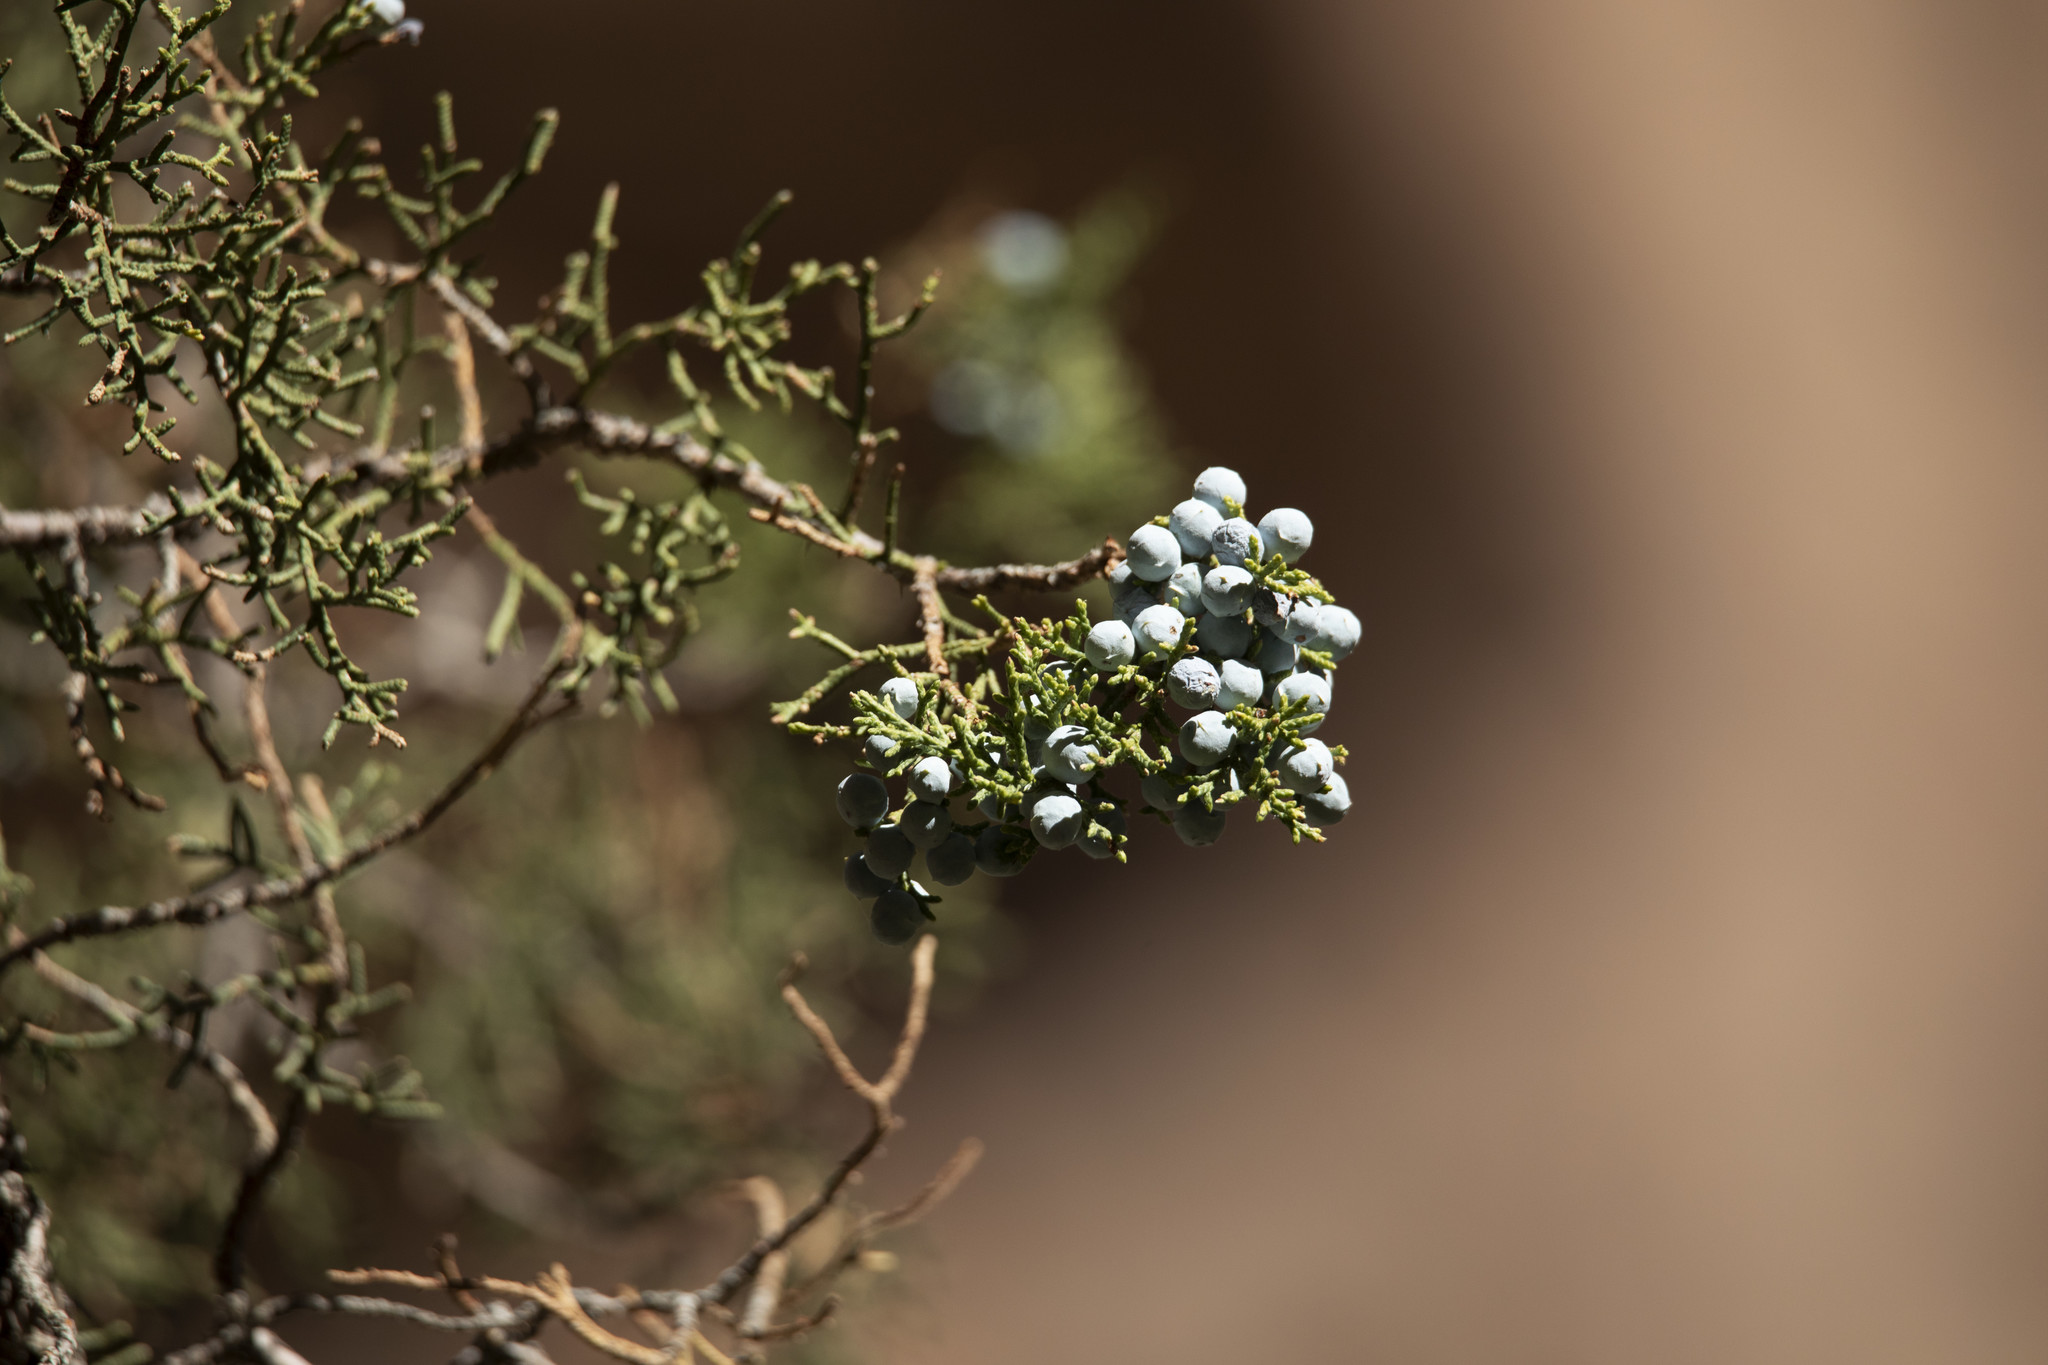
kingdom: Plantae
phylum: Tracheophyta
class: Pinopsida
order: Pinales
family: Cupressaceae
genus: Juniperus
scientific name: Juniperus osteosperma
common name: Utah juniper
